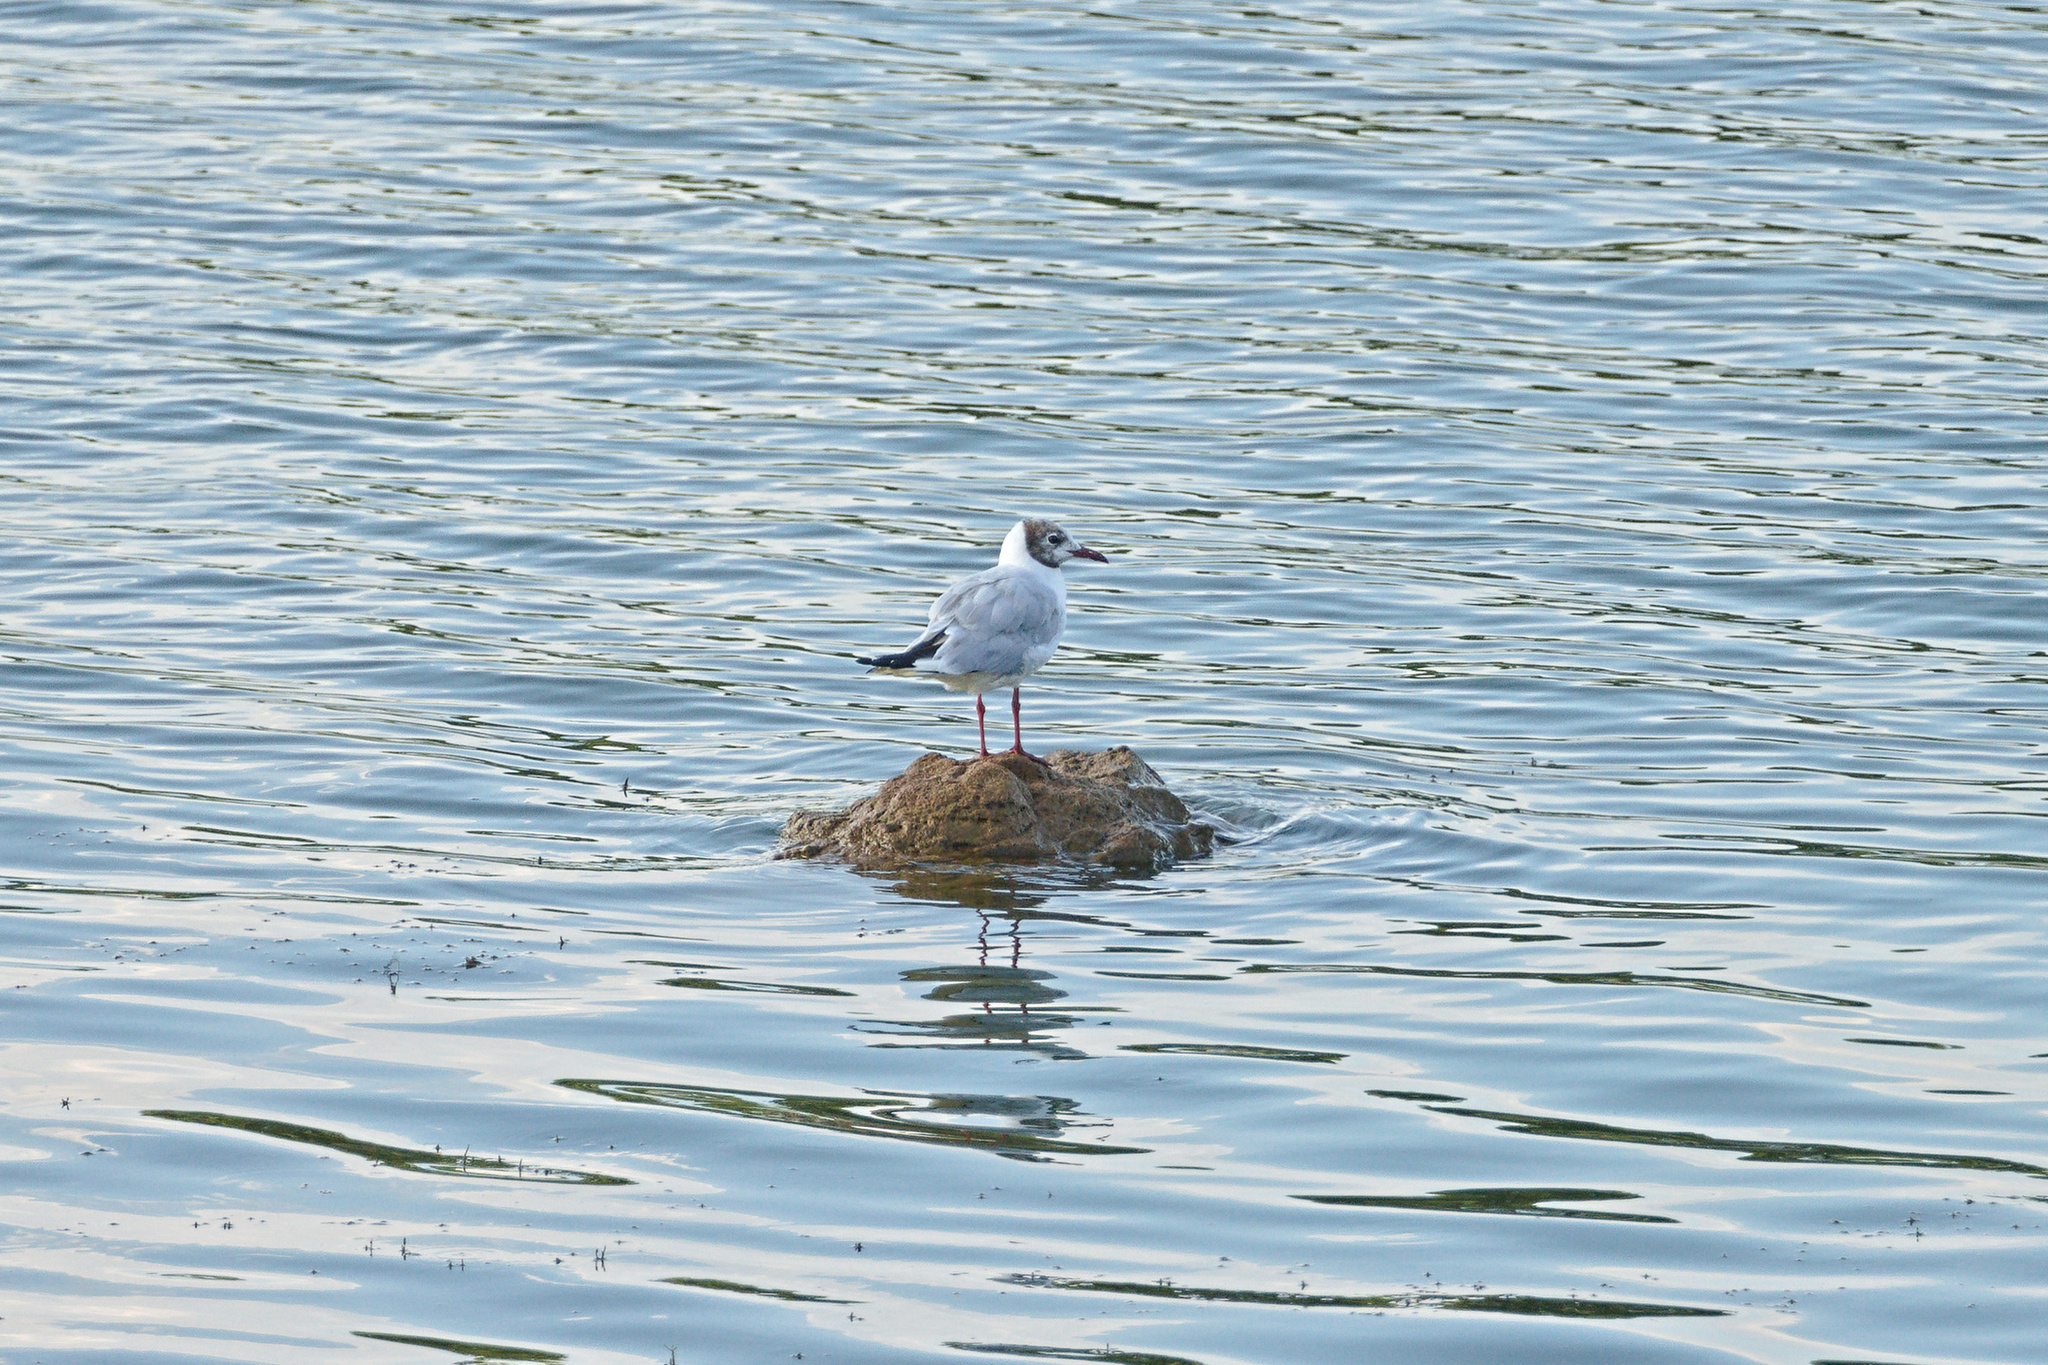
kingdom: Animalia
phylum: Chordata
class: Aves
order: Charadriiformes
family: Laridae
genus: Chroicocephalus
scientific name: Chroicocephalus ridibundus
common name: Black-headed gull
